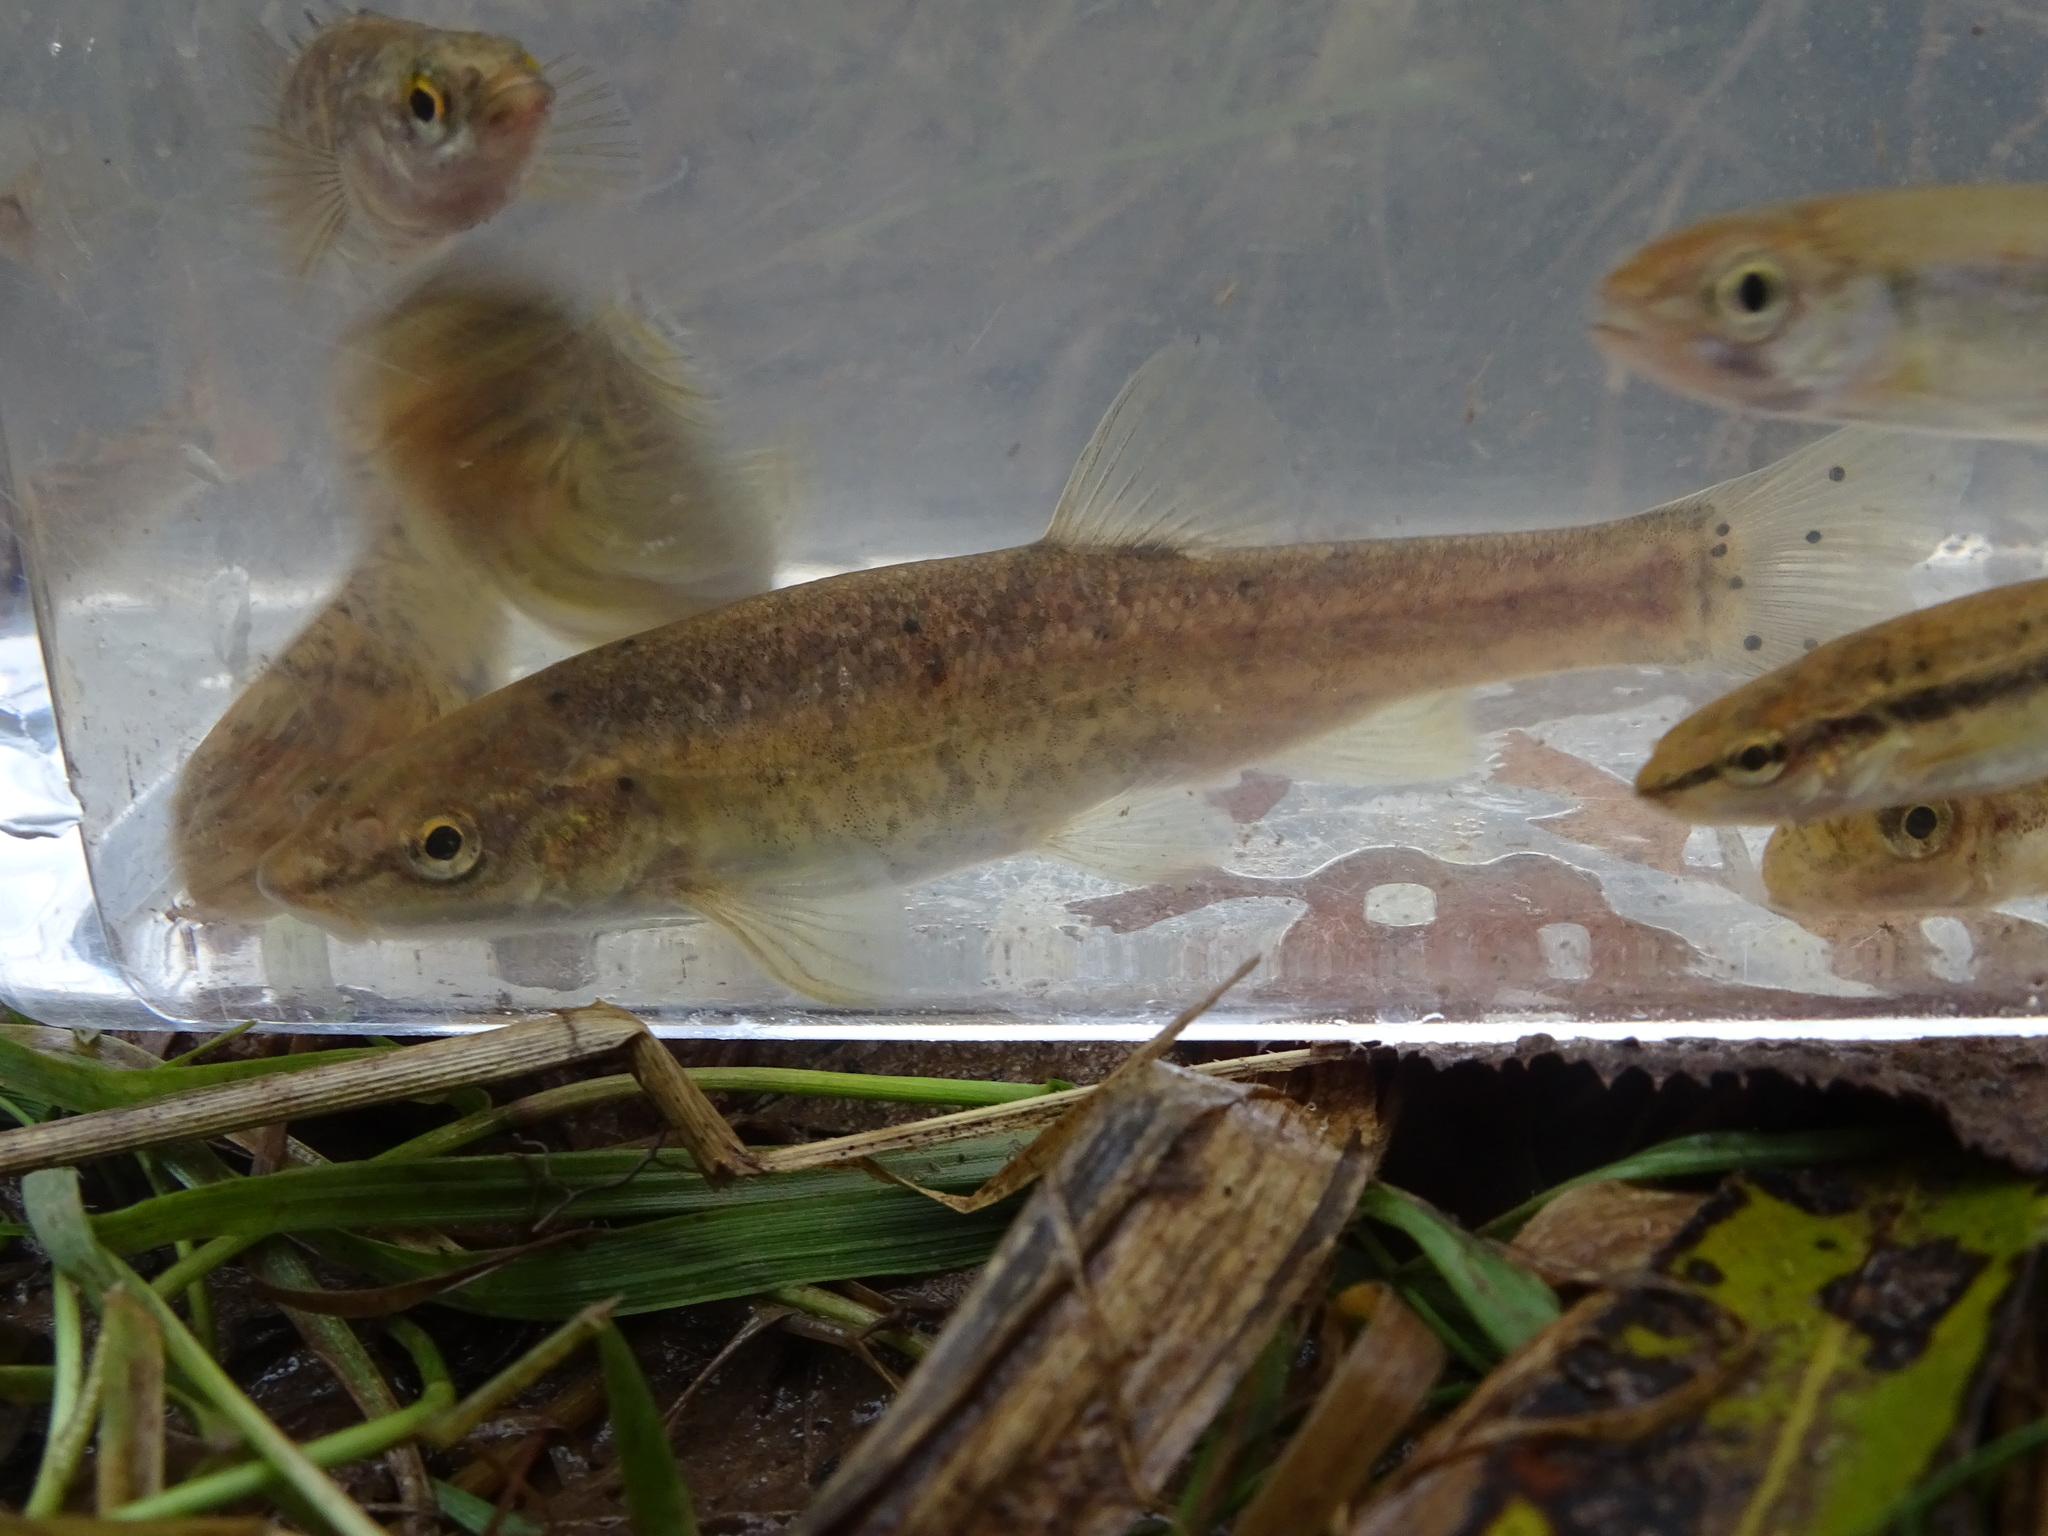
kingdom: Animalia
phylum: Chordata
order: Cypriniformes
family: Cyprinidae
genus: Rhinichthys
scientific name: Rhinichthys obtusus
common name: Western blacknose dace
